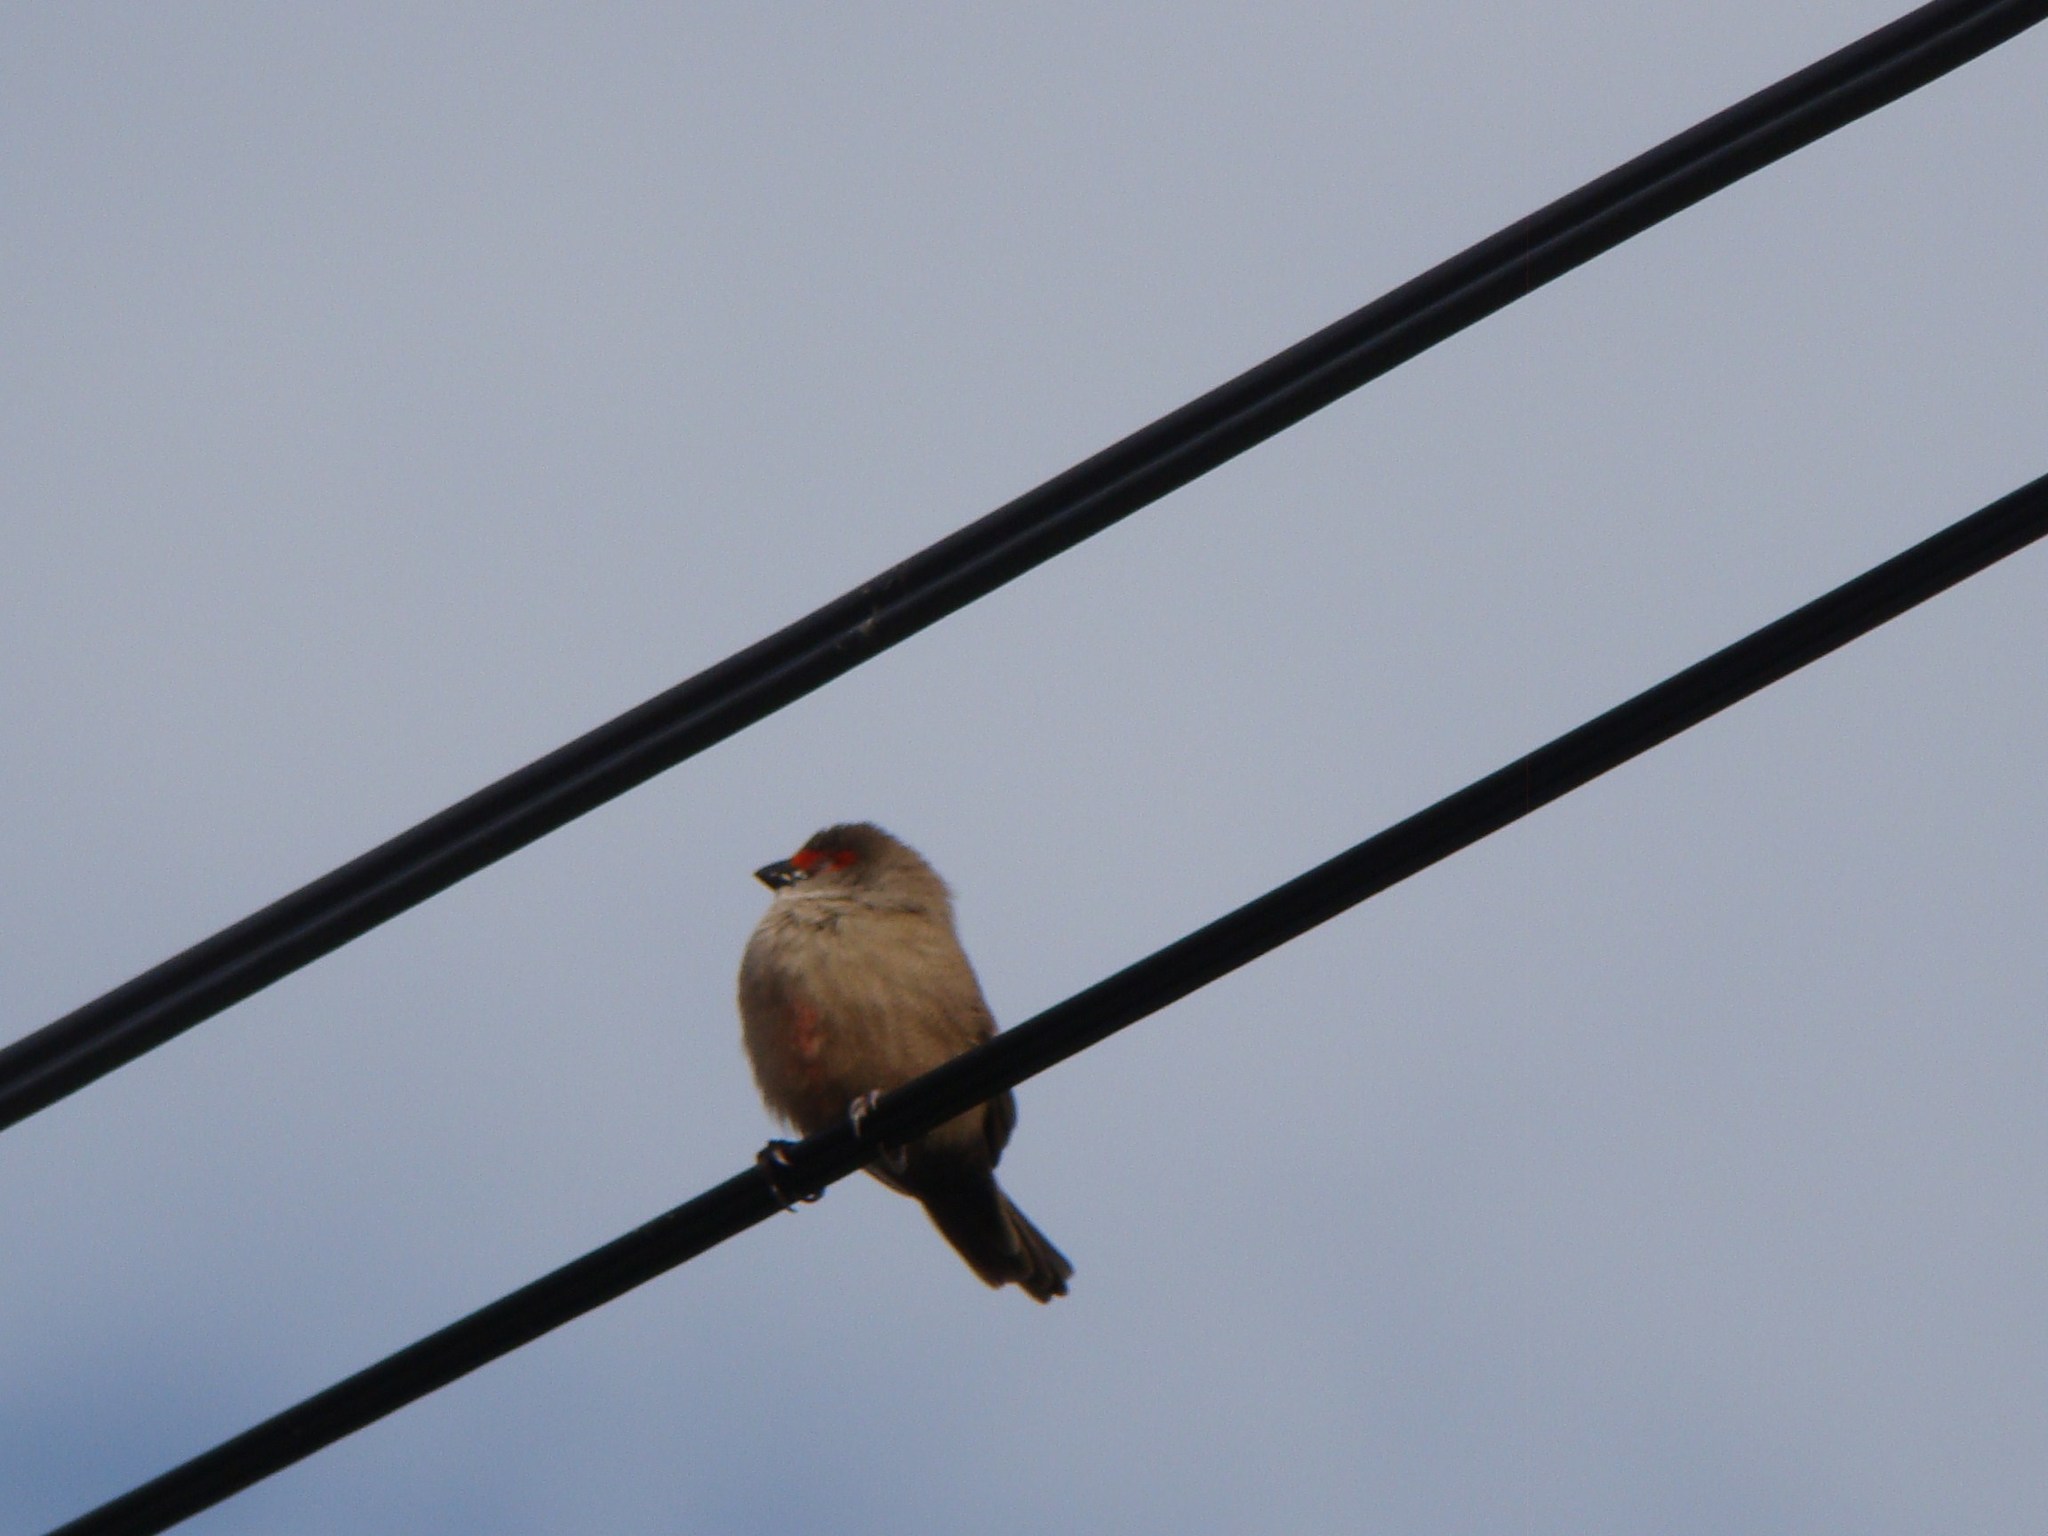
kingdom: Animalia
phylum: Chordata
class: Aves
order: Passeriformes
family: Estrildidae
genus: Estrilda
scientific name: Estrilda astrild
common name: Common waxbill
